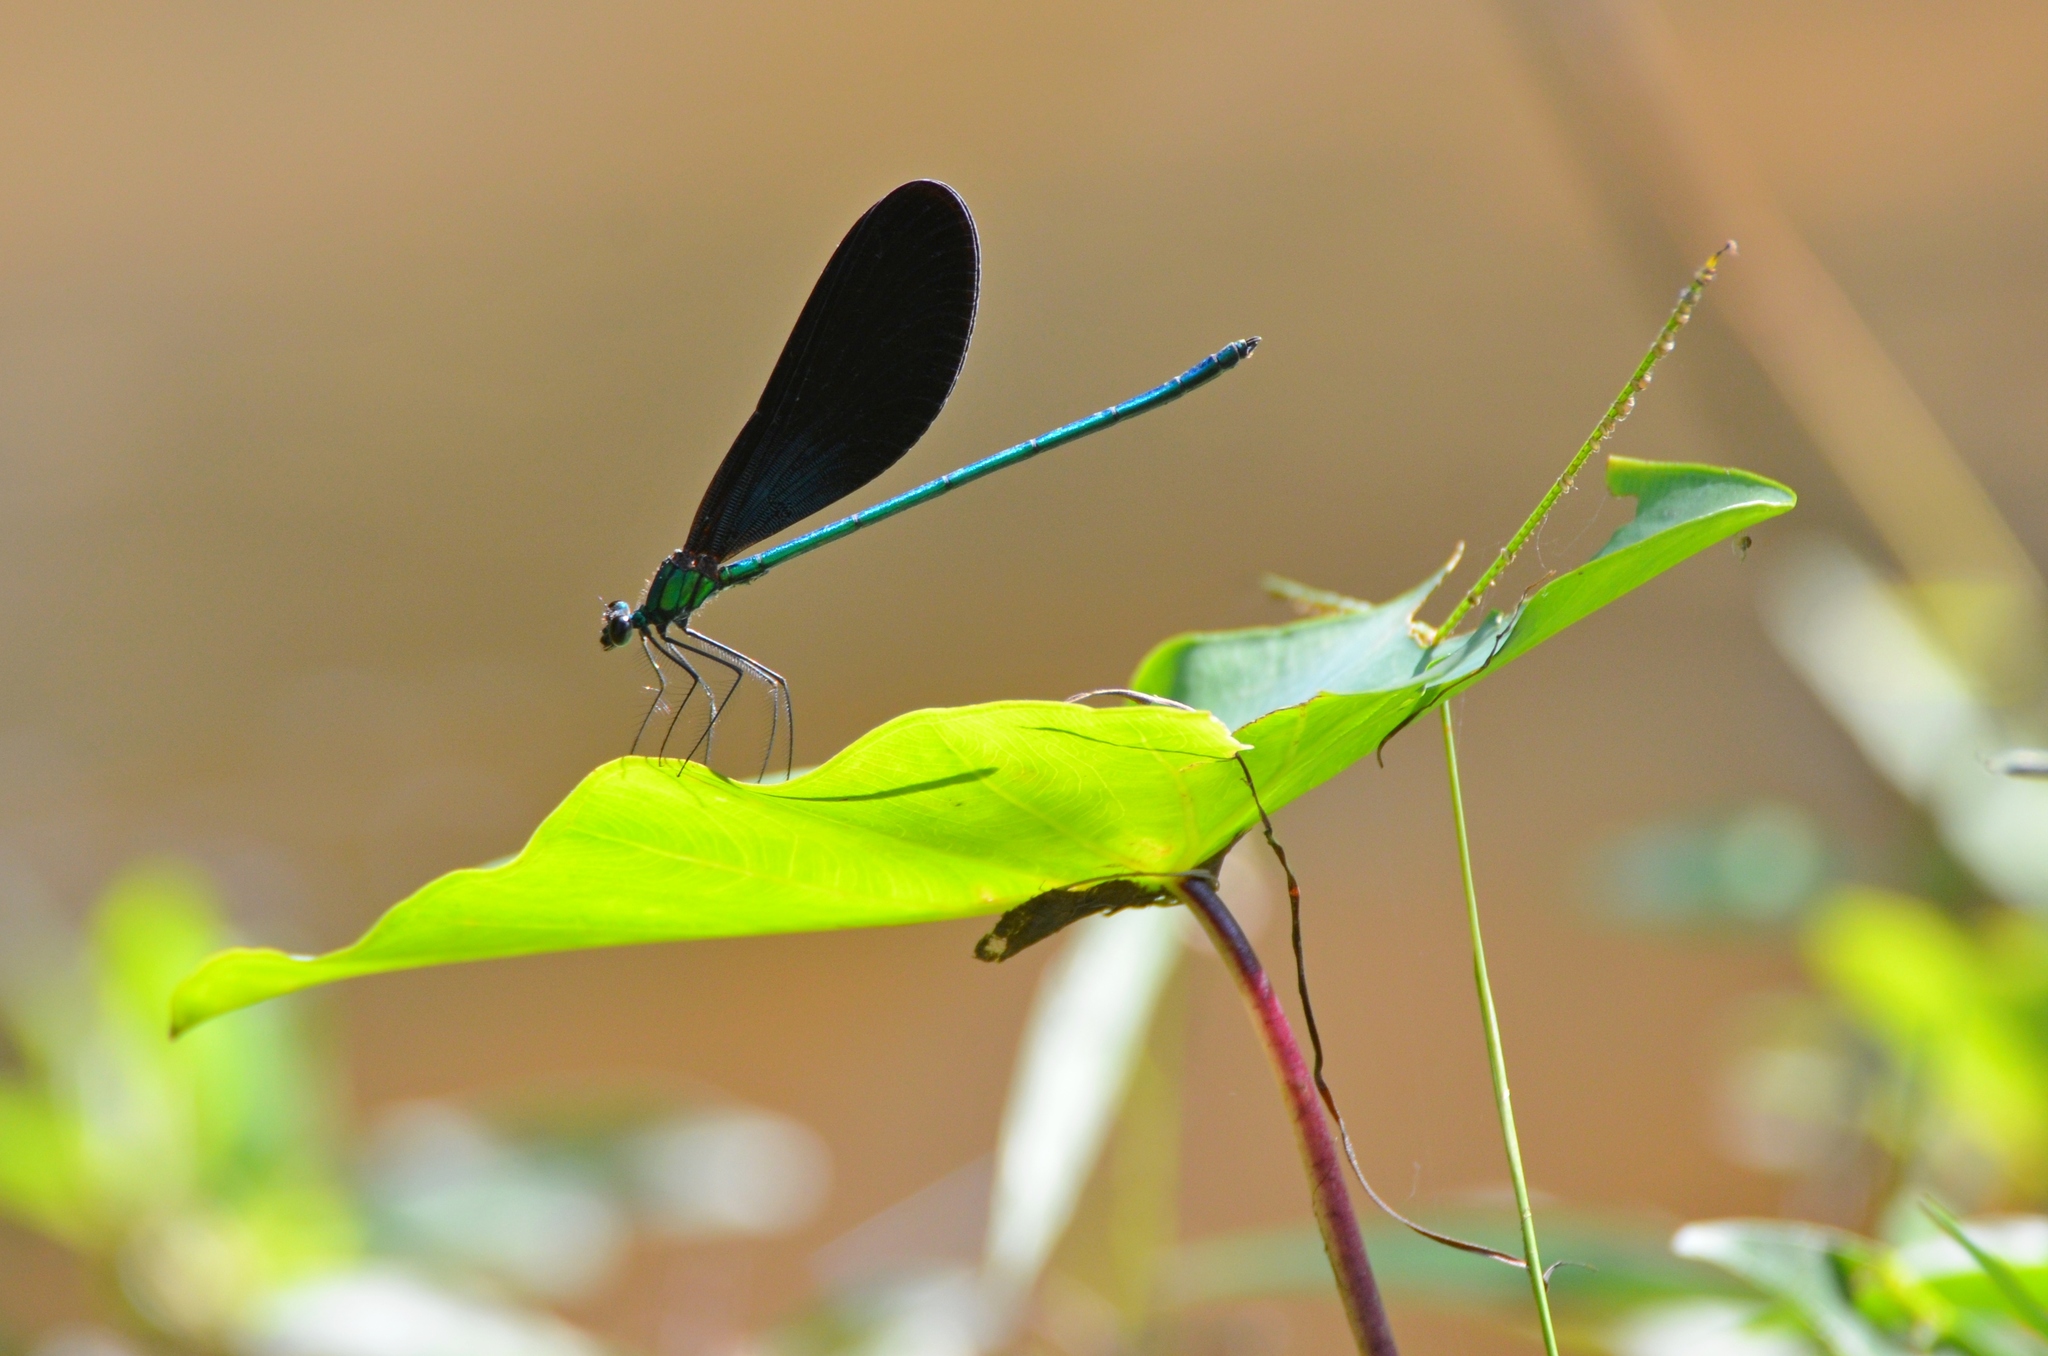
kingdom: Animalia
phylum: Arthropoda
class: Insecta
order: Odonata
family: Calopterygidae
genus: Matrona
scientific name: Matrona nigripectus
